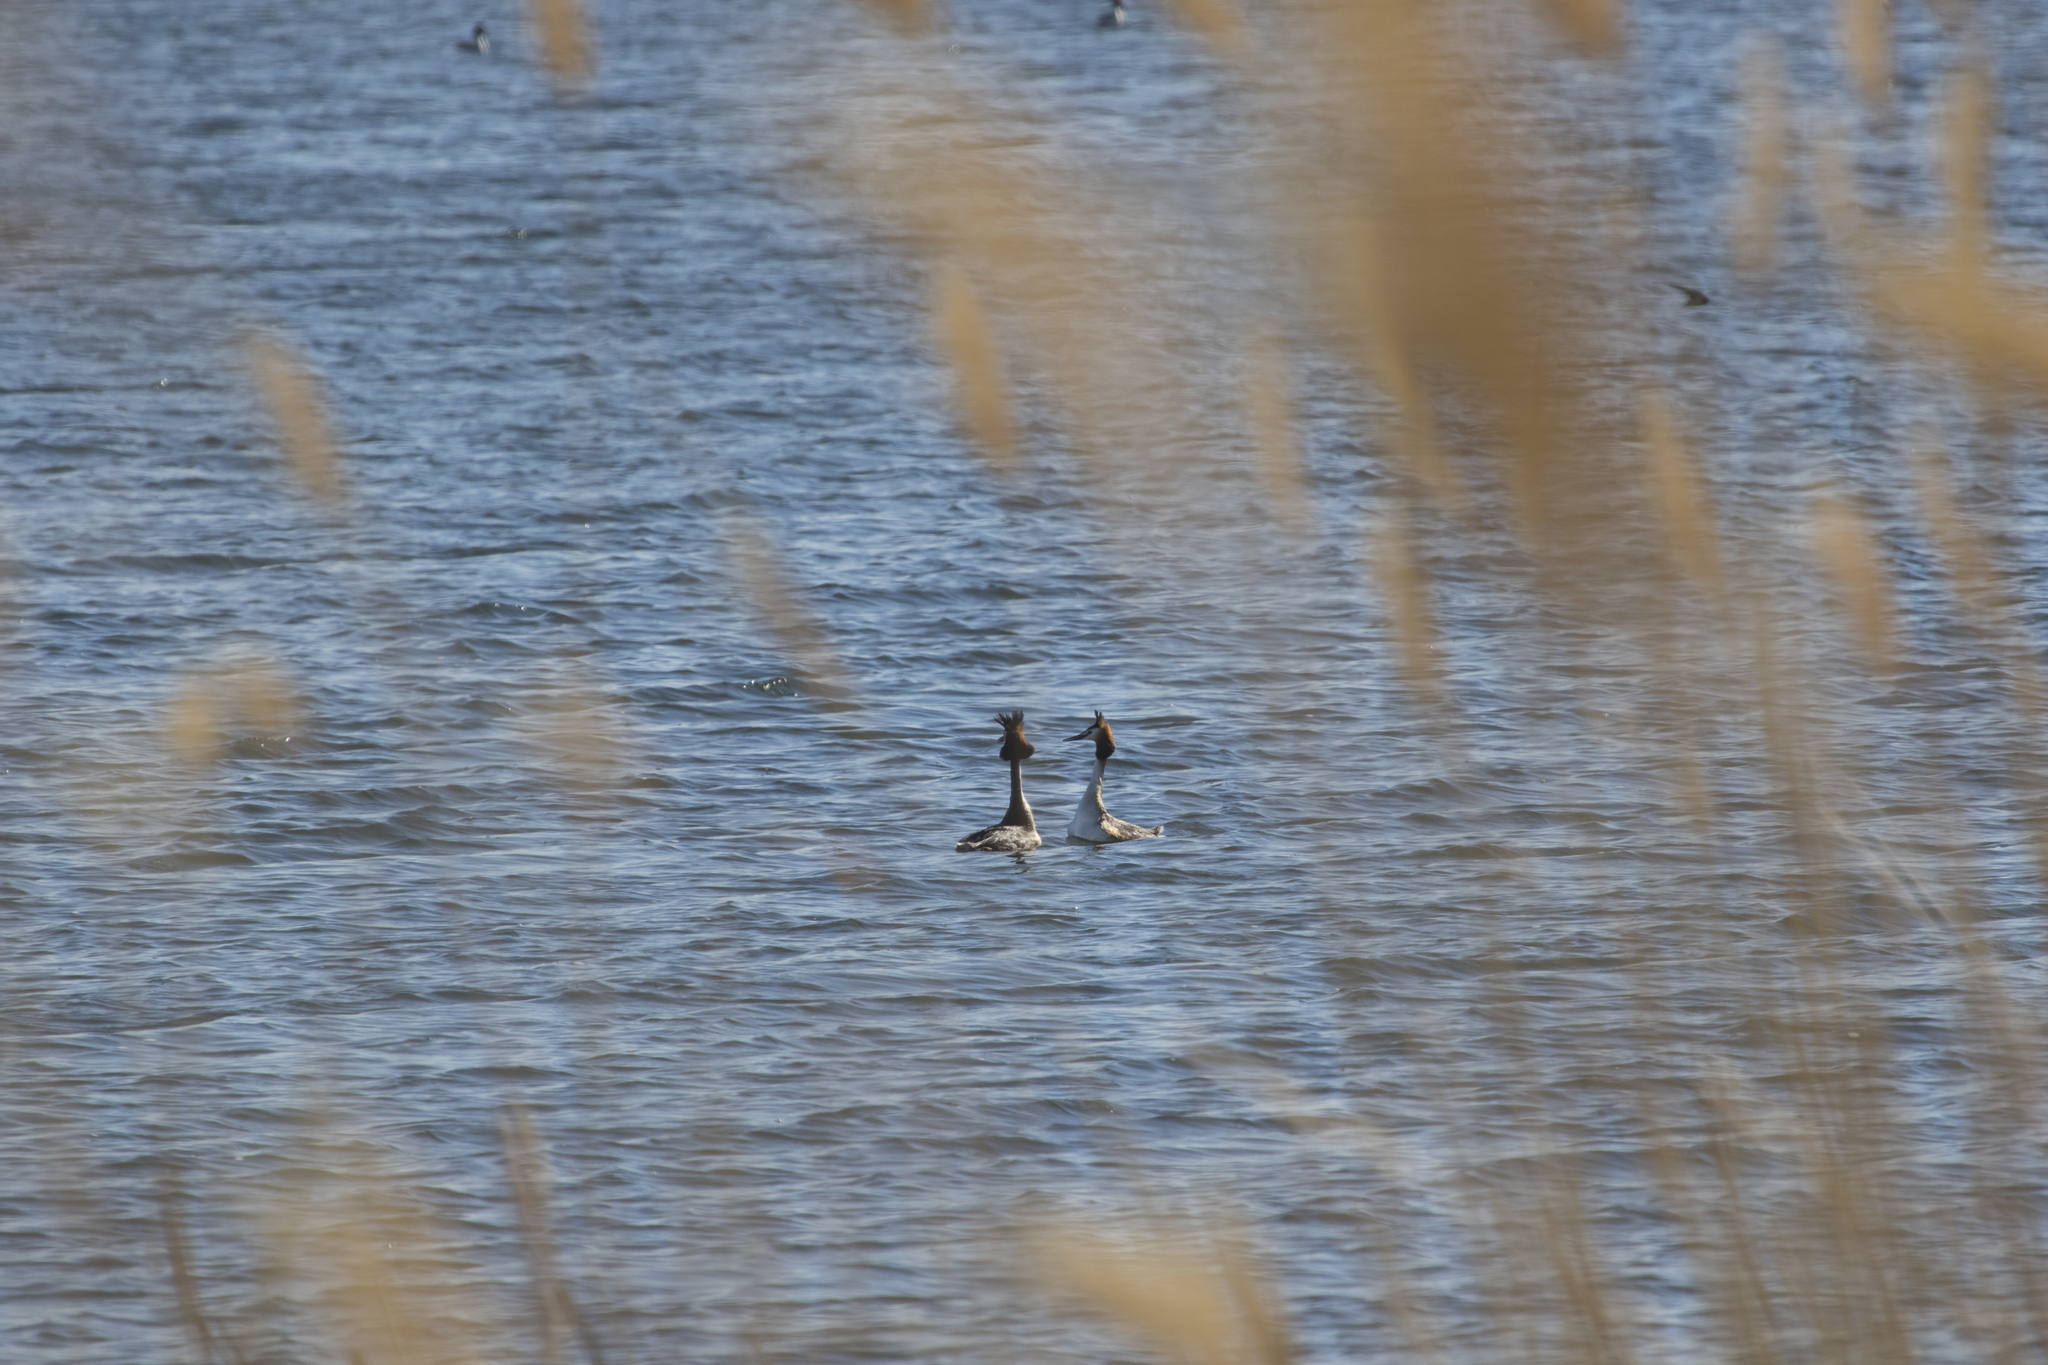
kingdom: Animalia
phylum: Chordata
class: Aves
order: Podicipediformes
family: Podicipedidae
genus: Podiceps
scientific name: Podiceps cristatus
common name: Great crested grebe
